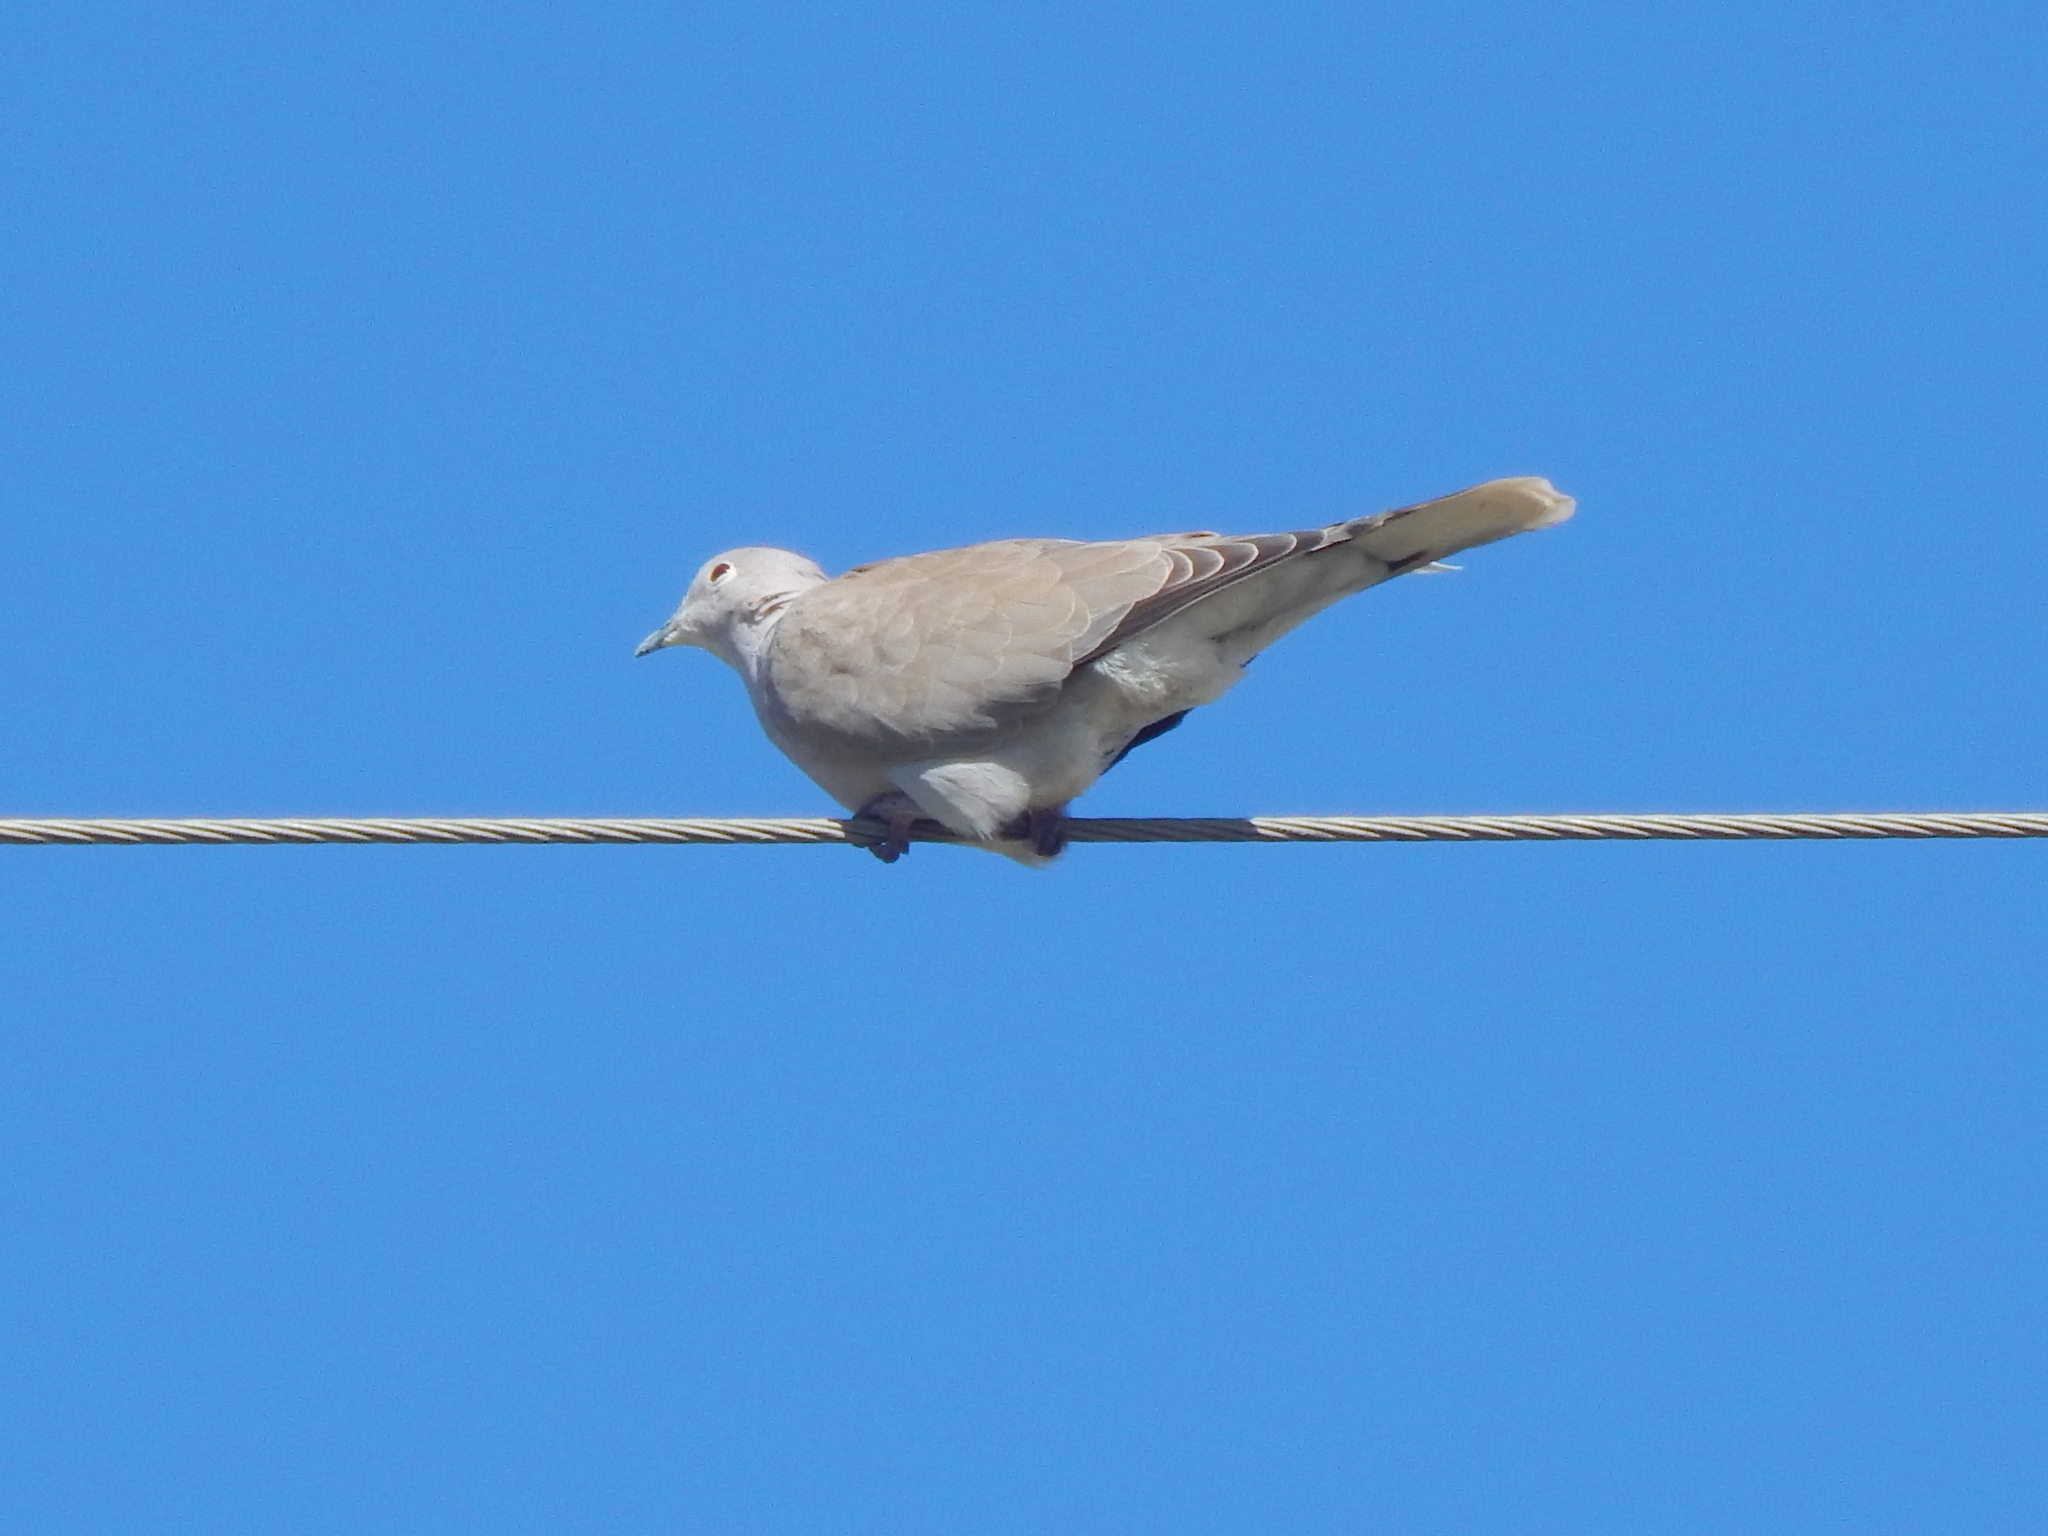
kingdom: Animalia
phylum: Chordata
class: Aves
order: Columbiformes
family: Columbidae
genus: Streptopelia
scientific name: Streptopelia decaocto
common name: Eurasian collared dove
